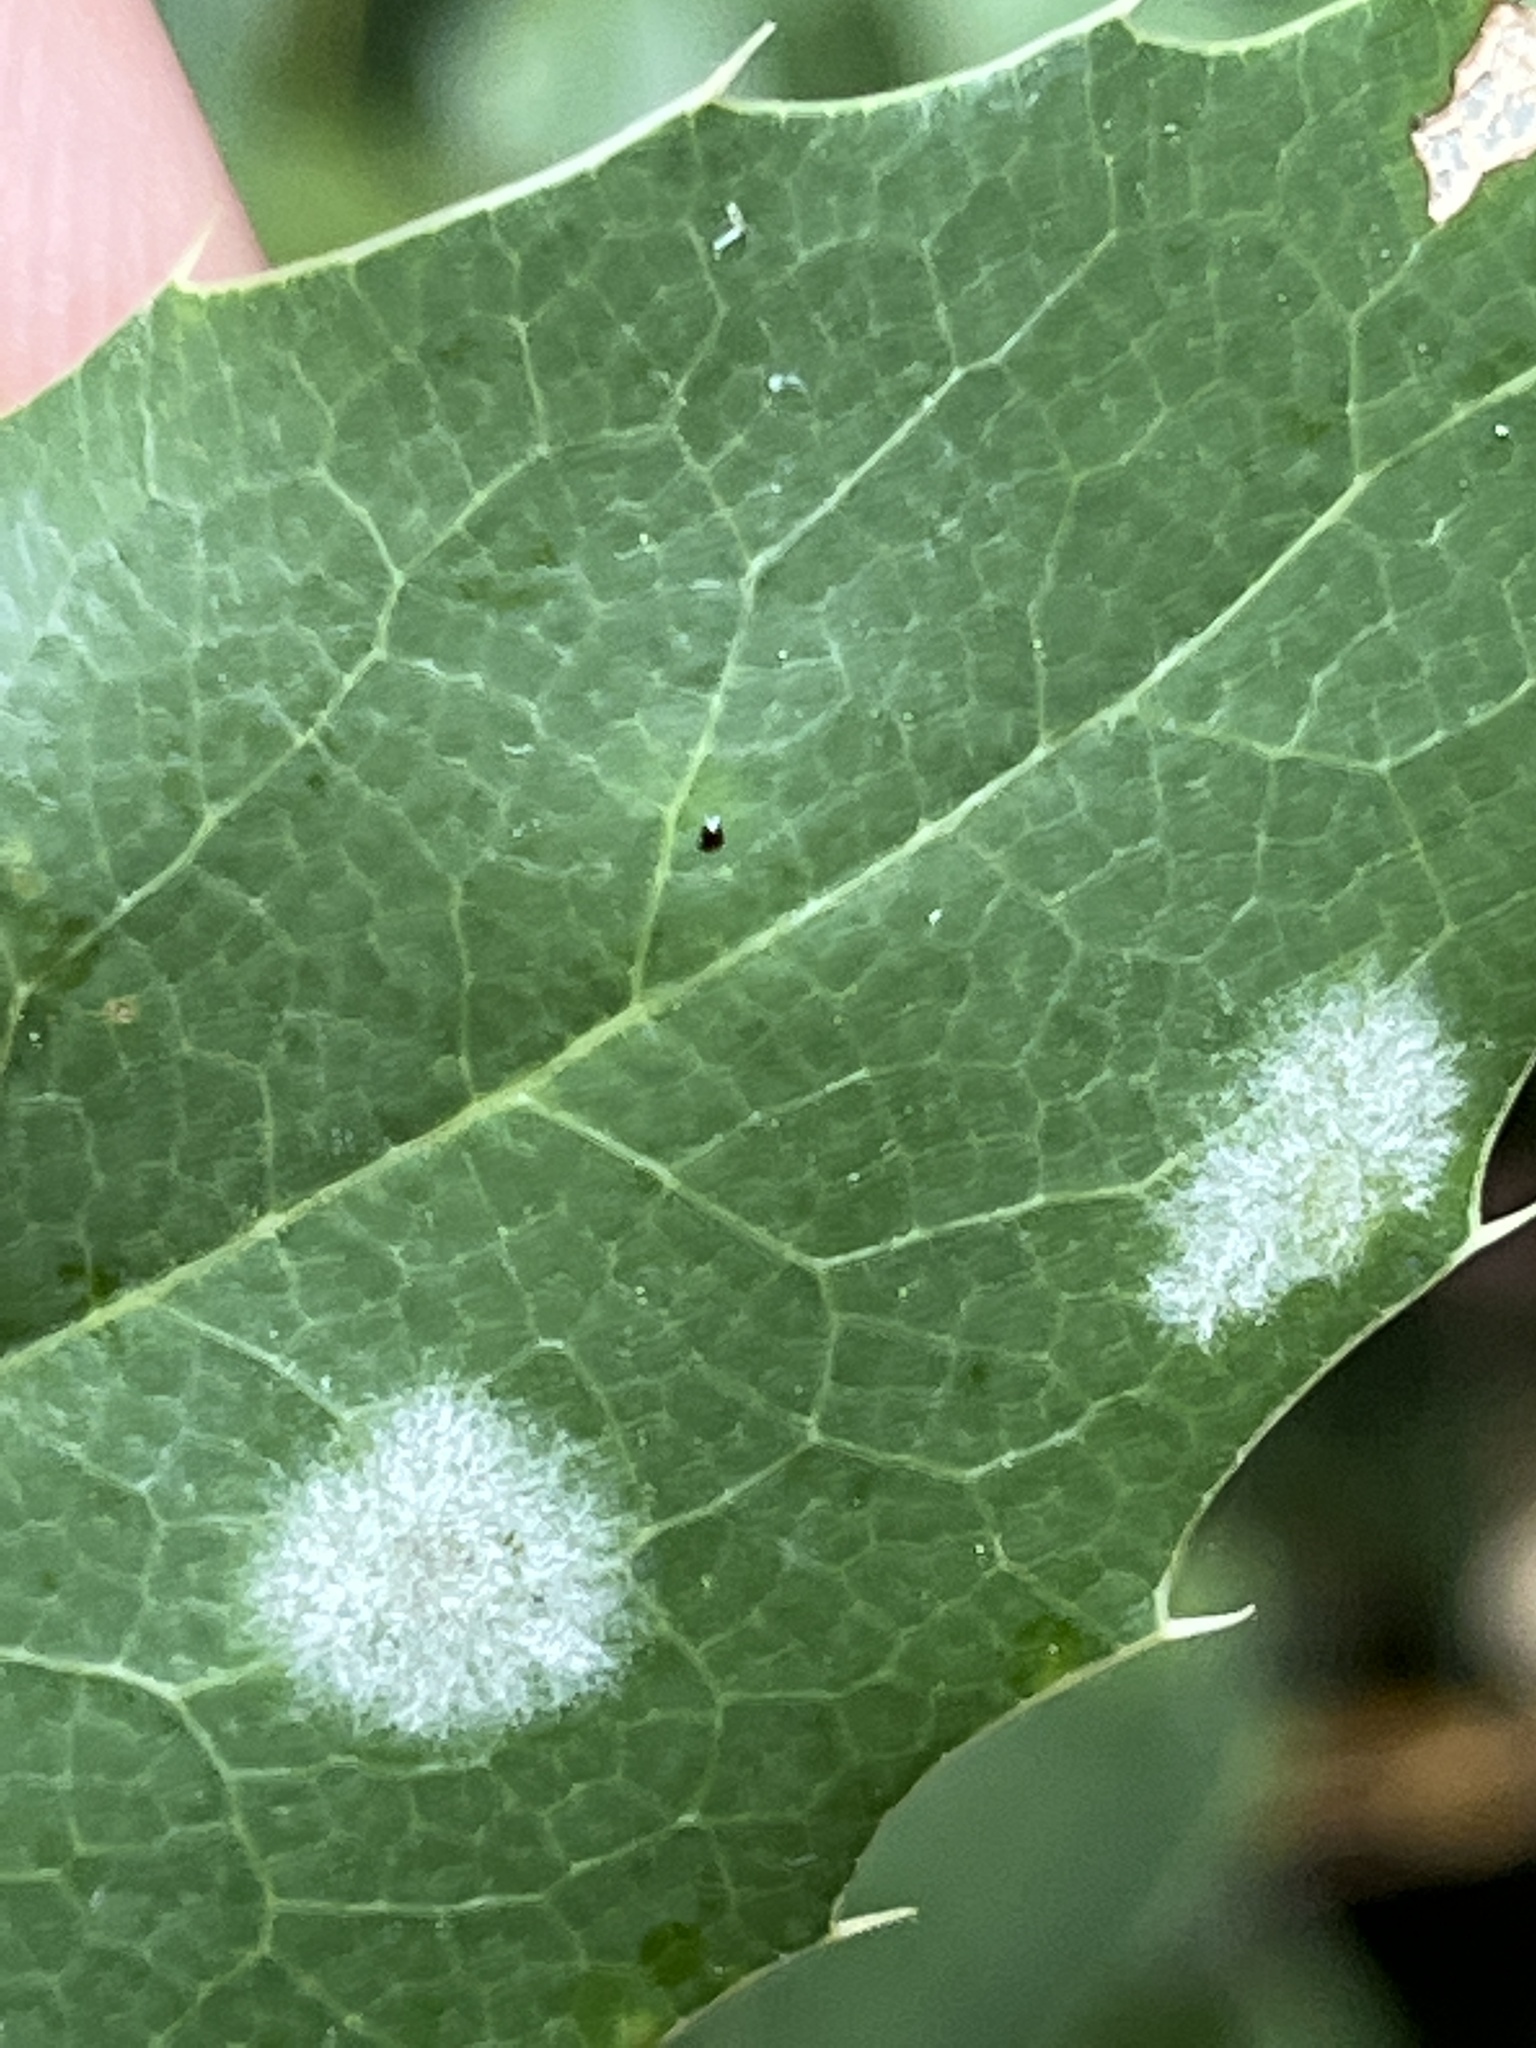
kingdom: Fungi
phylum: Ascomycota
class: Leotiomycetes
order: Helotiales
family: Erysiphaceae
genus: Erysiphe
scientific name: Erysiphe berberidis
